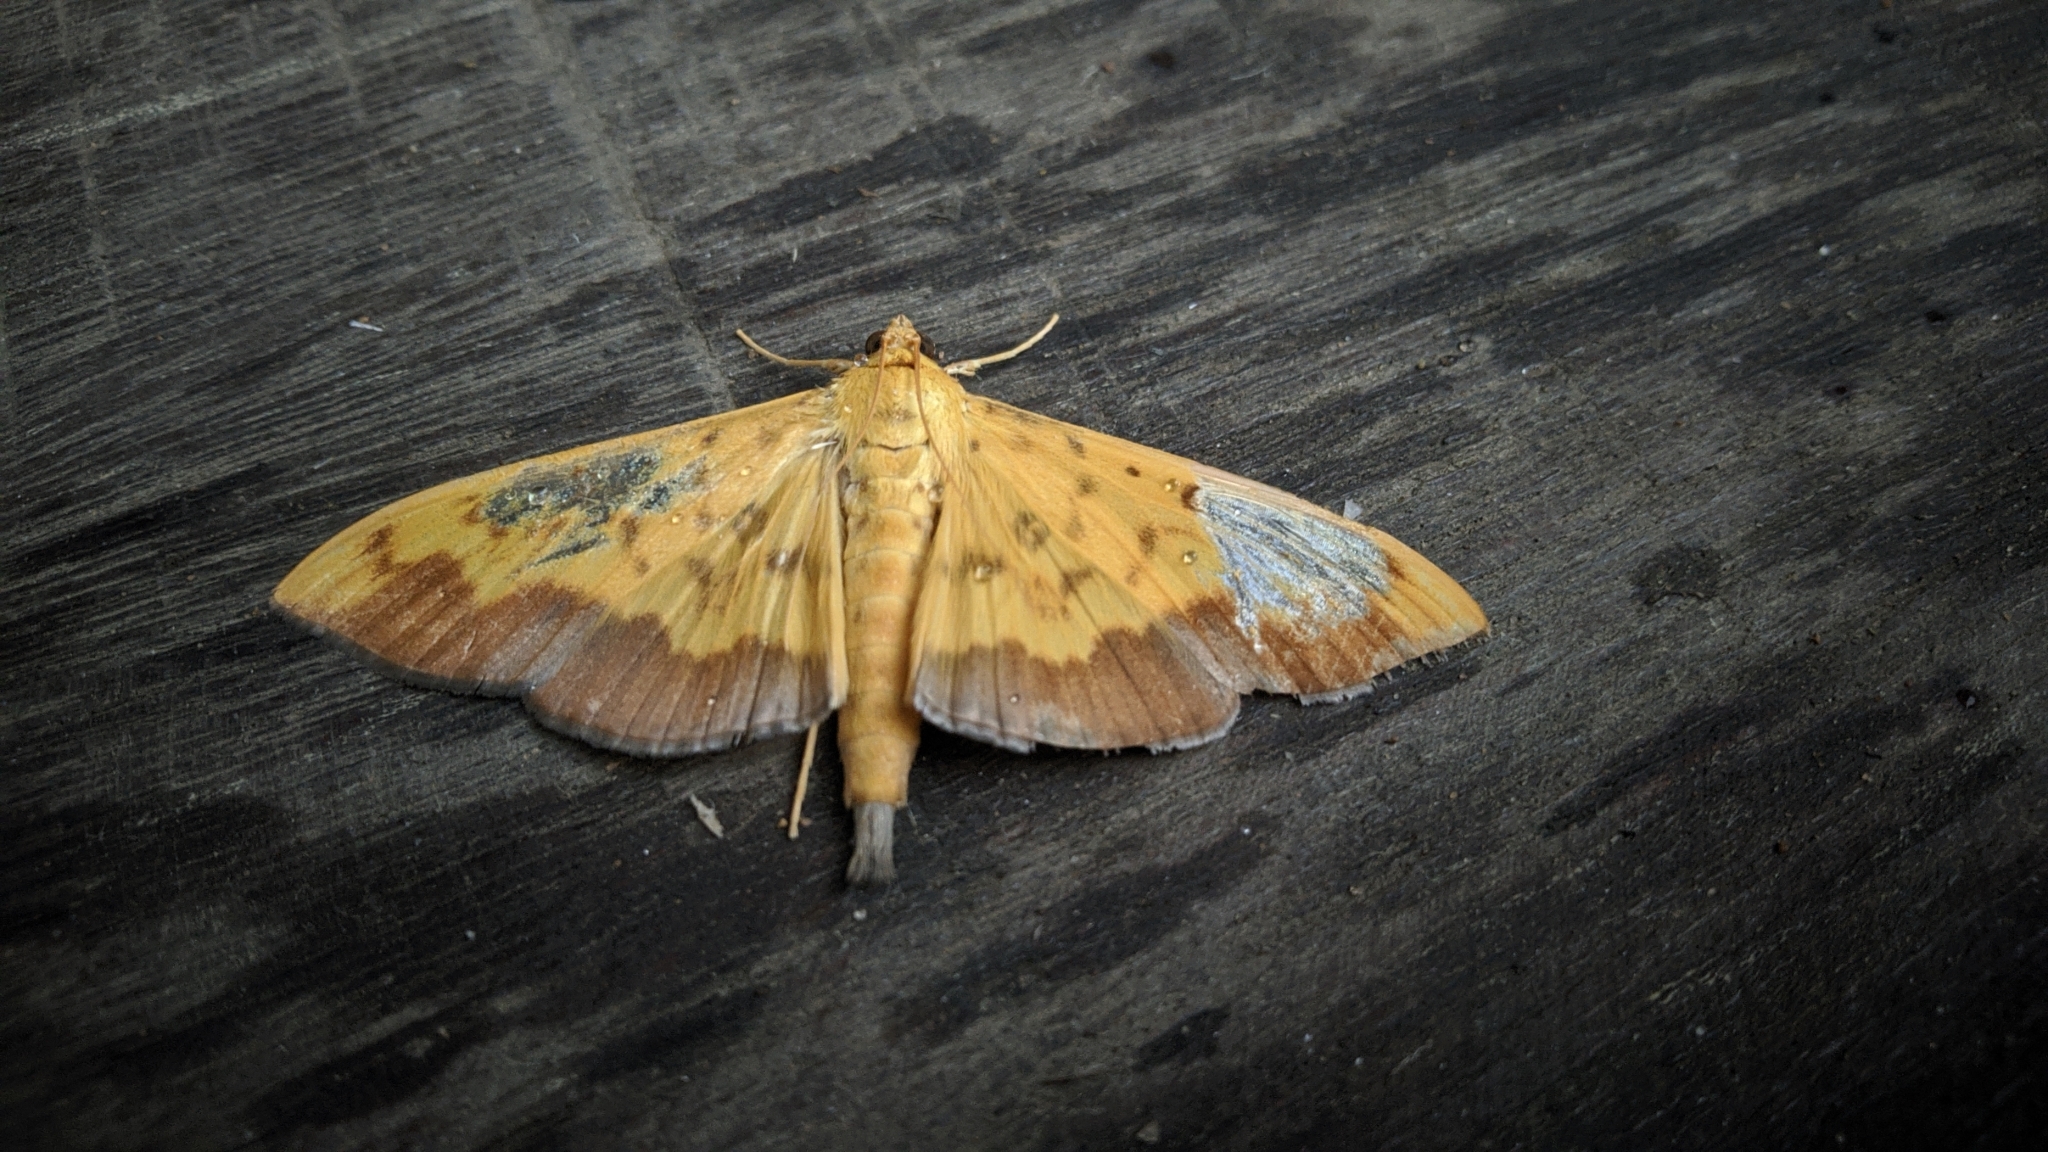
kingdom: Animalia
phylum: Arthropoda
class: Insecta
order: Lepidoptera
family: Crambidae
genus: Botyodes
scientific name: Botyodes asialis
